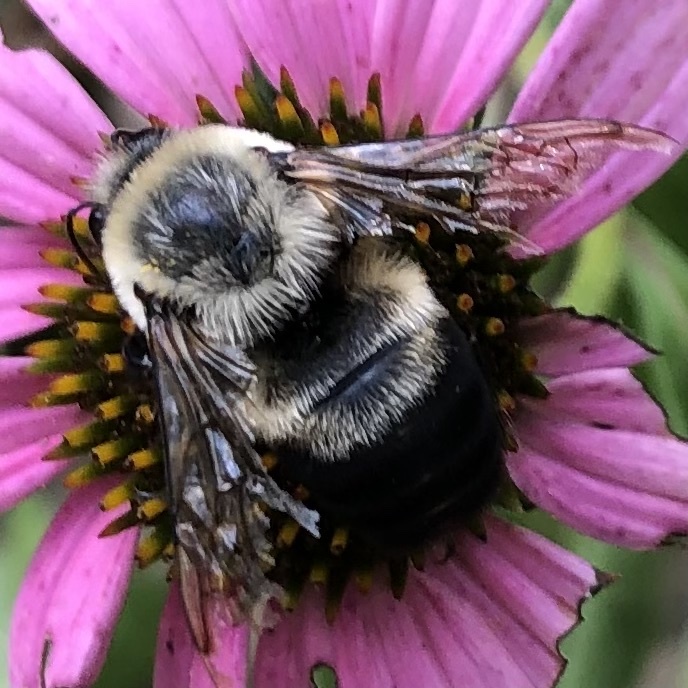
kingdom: Animalia
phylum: Arthropoda
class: Insecta
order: Hymenoptera
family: Apidae
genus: Bombus
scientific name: Bombus griseocollis
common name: Brown-belted bumble bee
